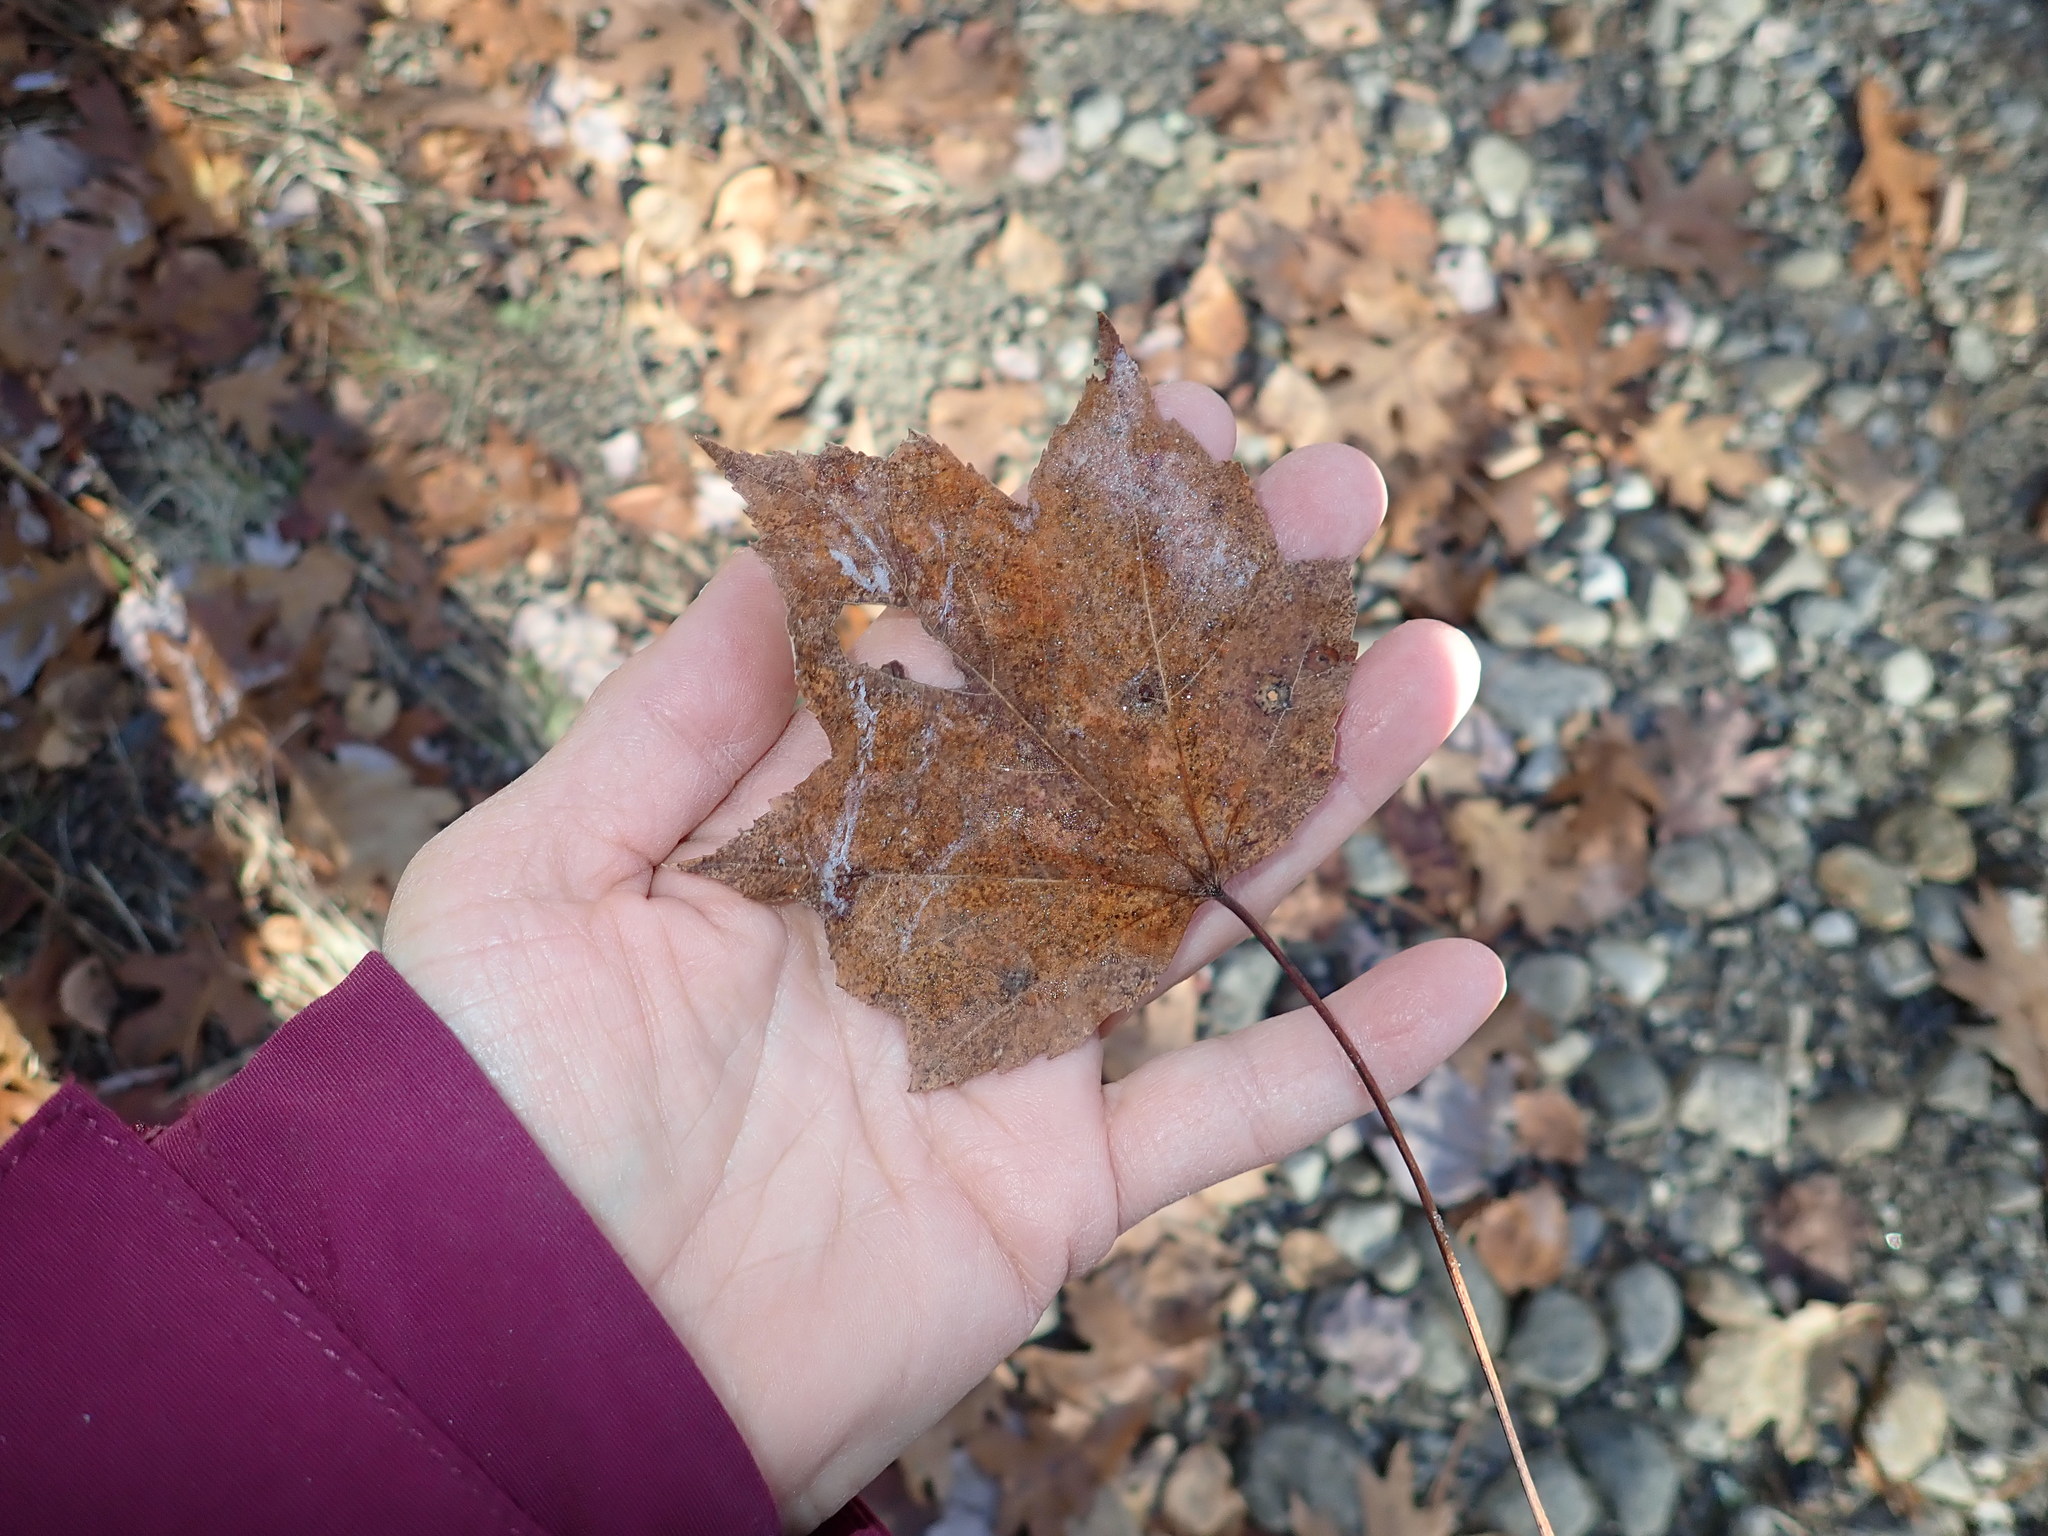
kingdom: Plantae
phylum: Tracheophyta
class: Magnoliopsida
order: Sapindales
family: Sapindaceae
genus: Acer
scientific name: Acer rubrum
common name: Red maple
